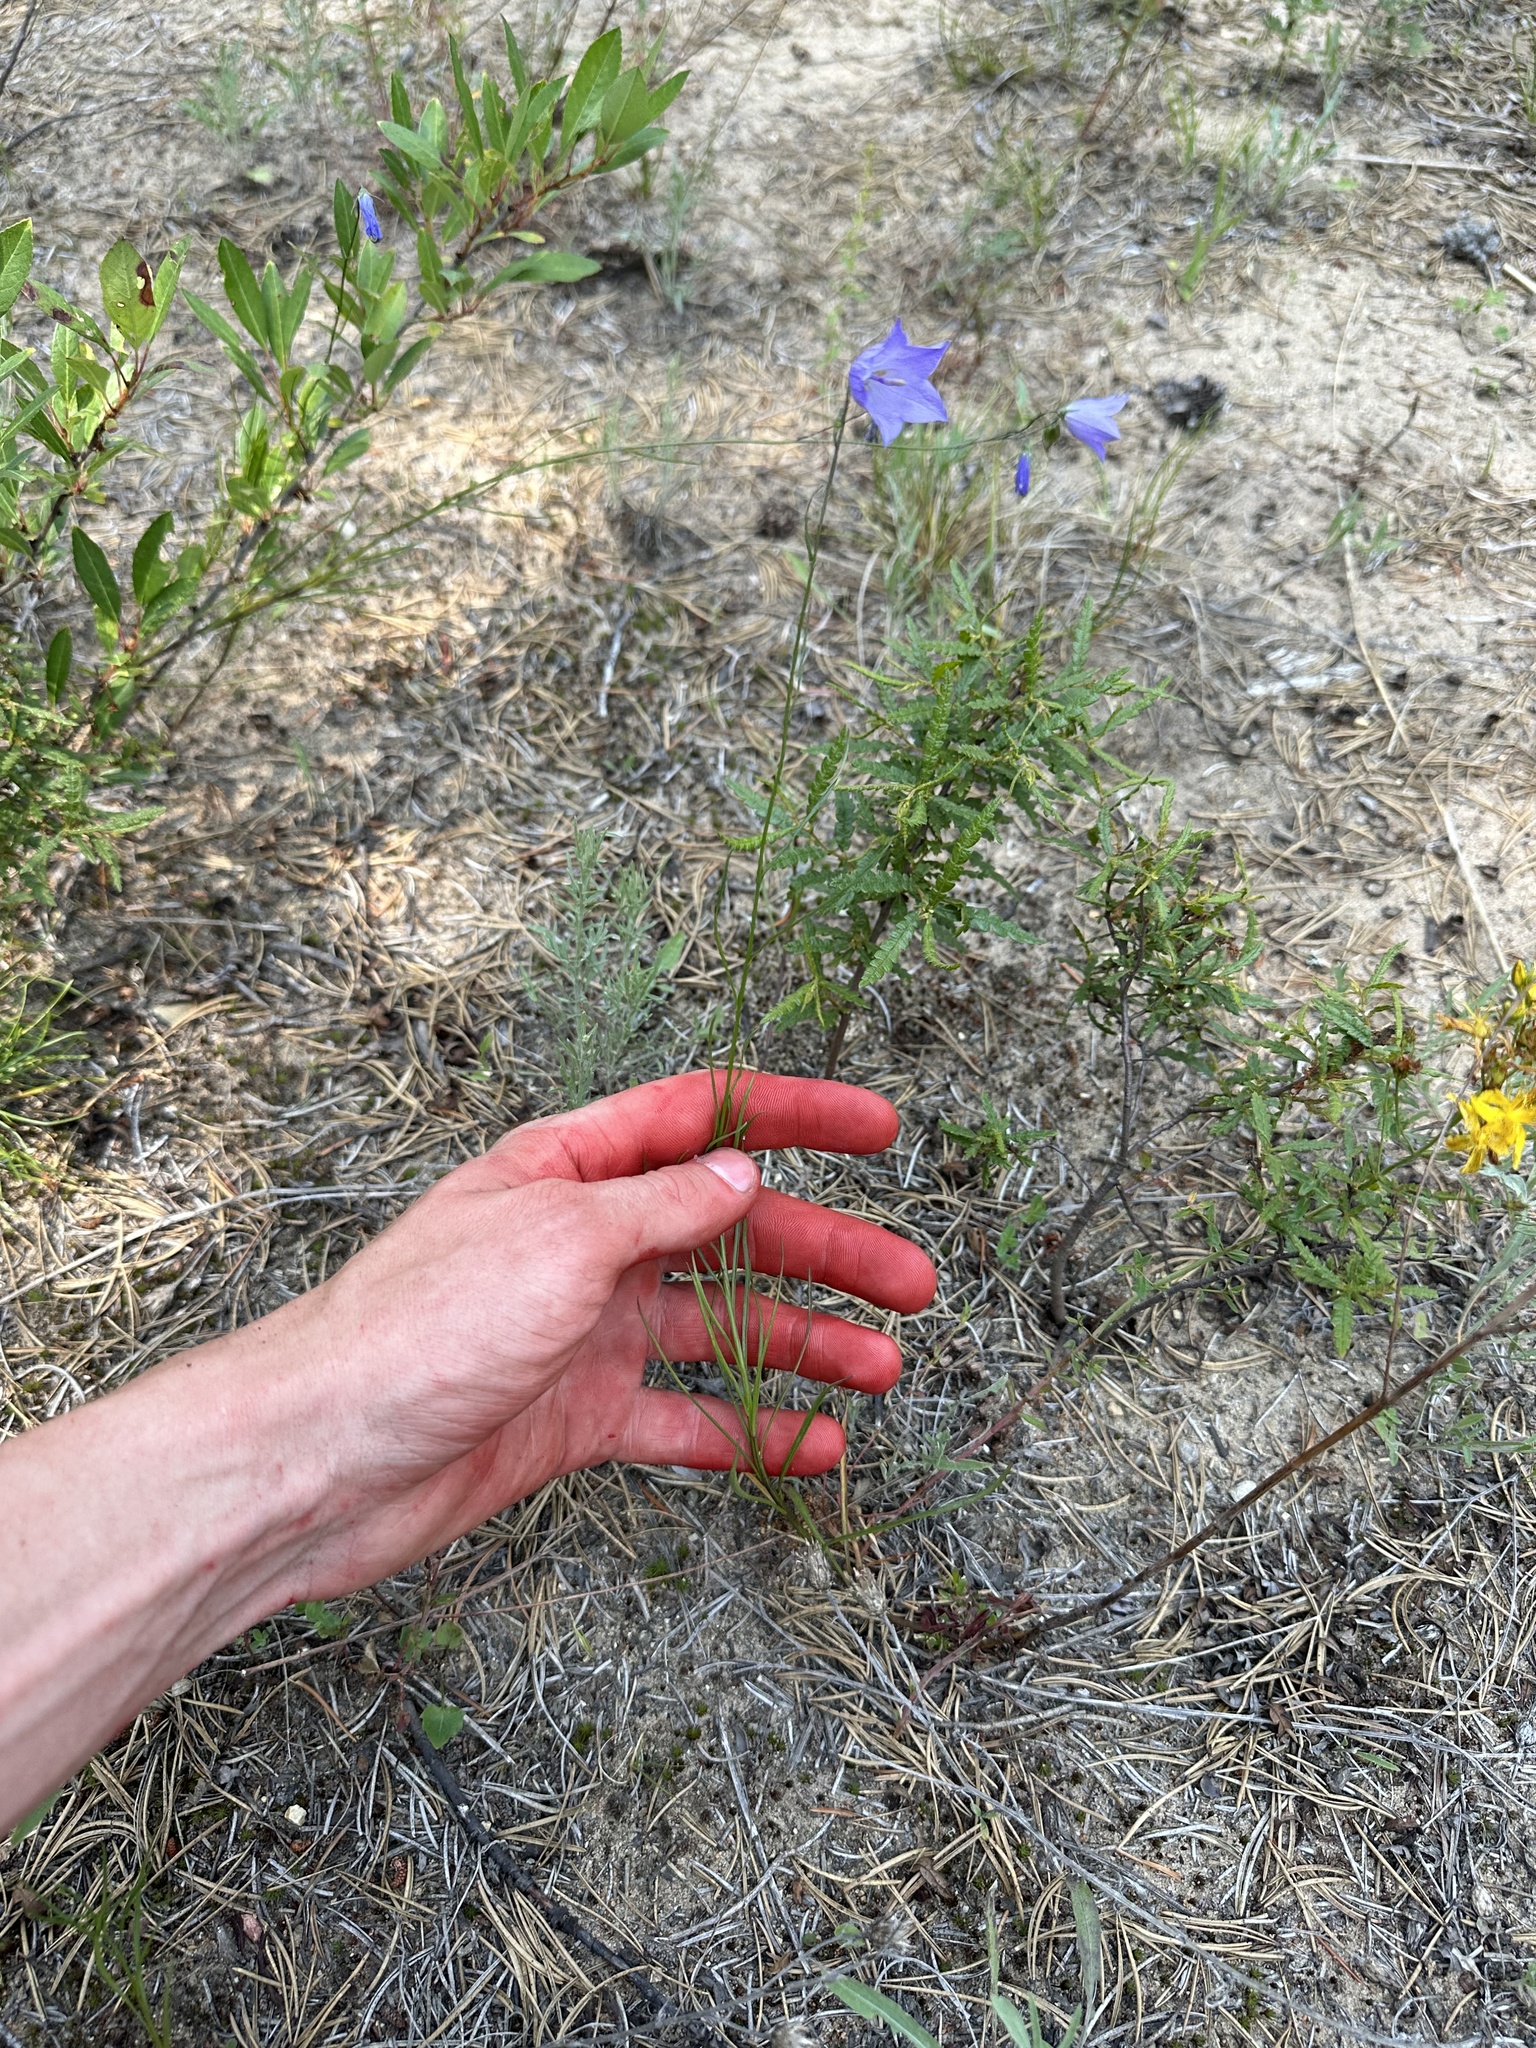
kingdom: Plantae
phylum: Tracheophyta
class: Magnoliopsida
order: Asterales
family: Campanulaceae
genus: Campanula
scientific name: Campanula intercedens
